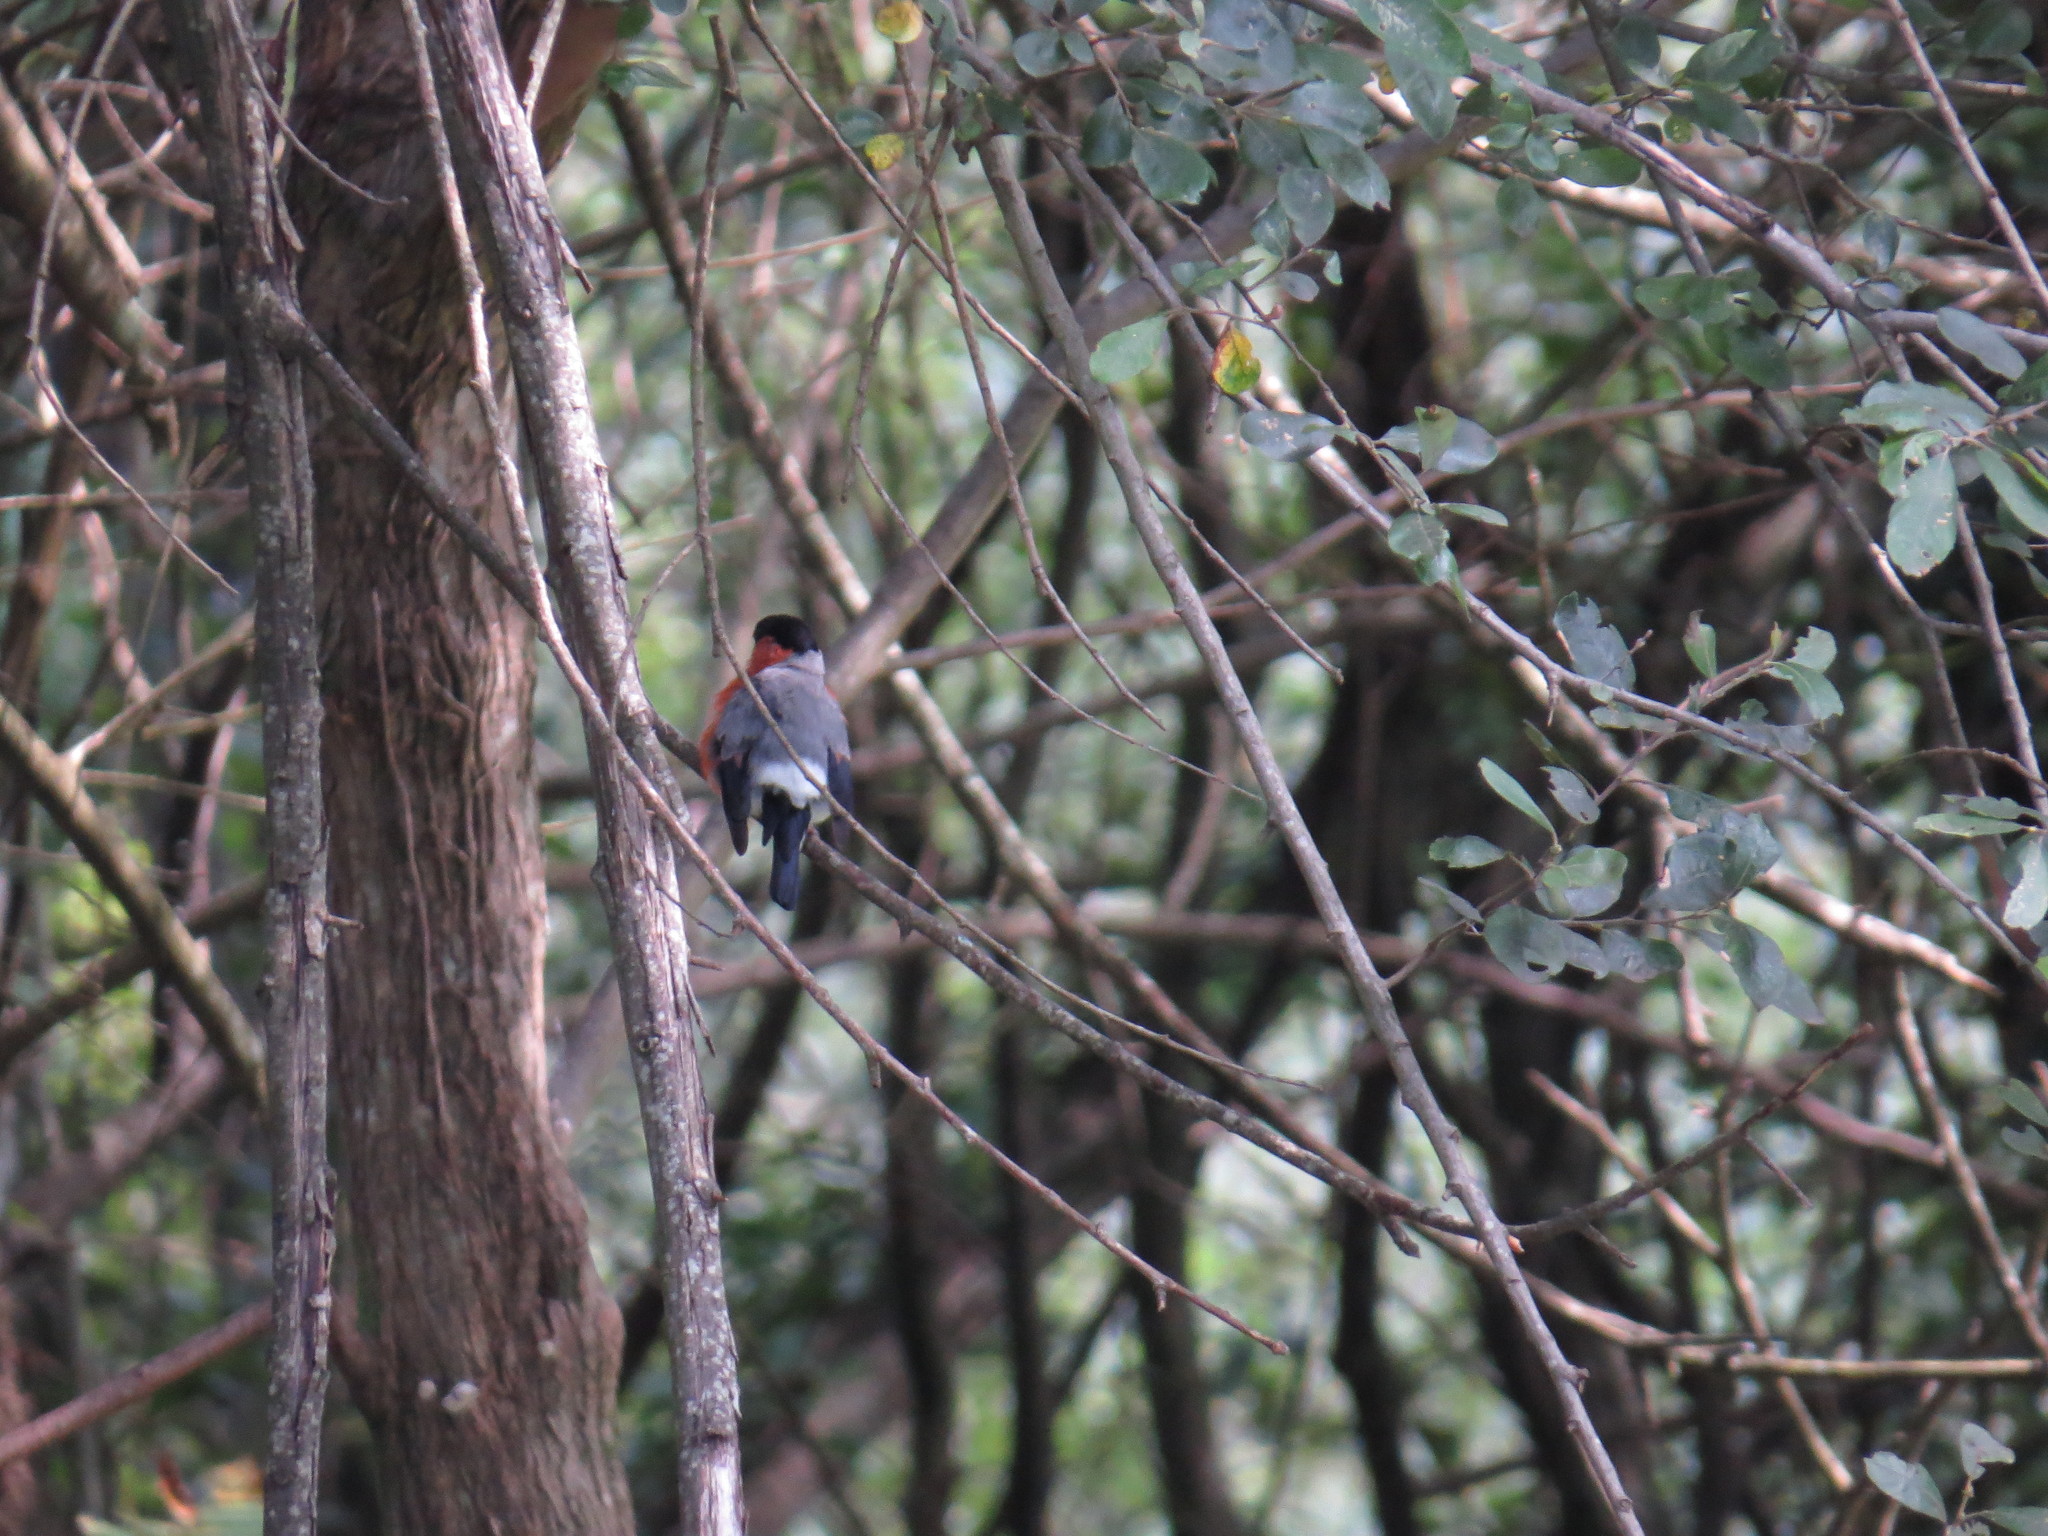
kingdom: Animalia
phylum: Chordata
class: Aves
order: Passeriformes
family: Fringillidae
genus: Pyrrhula
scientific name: Pyrrhula pyrrhula
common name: Eurasian bullfinch
